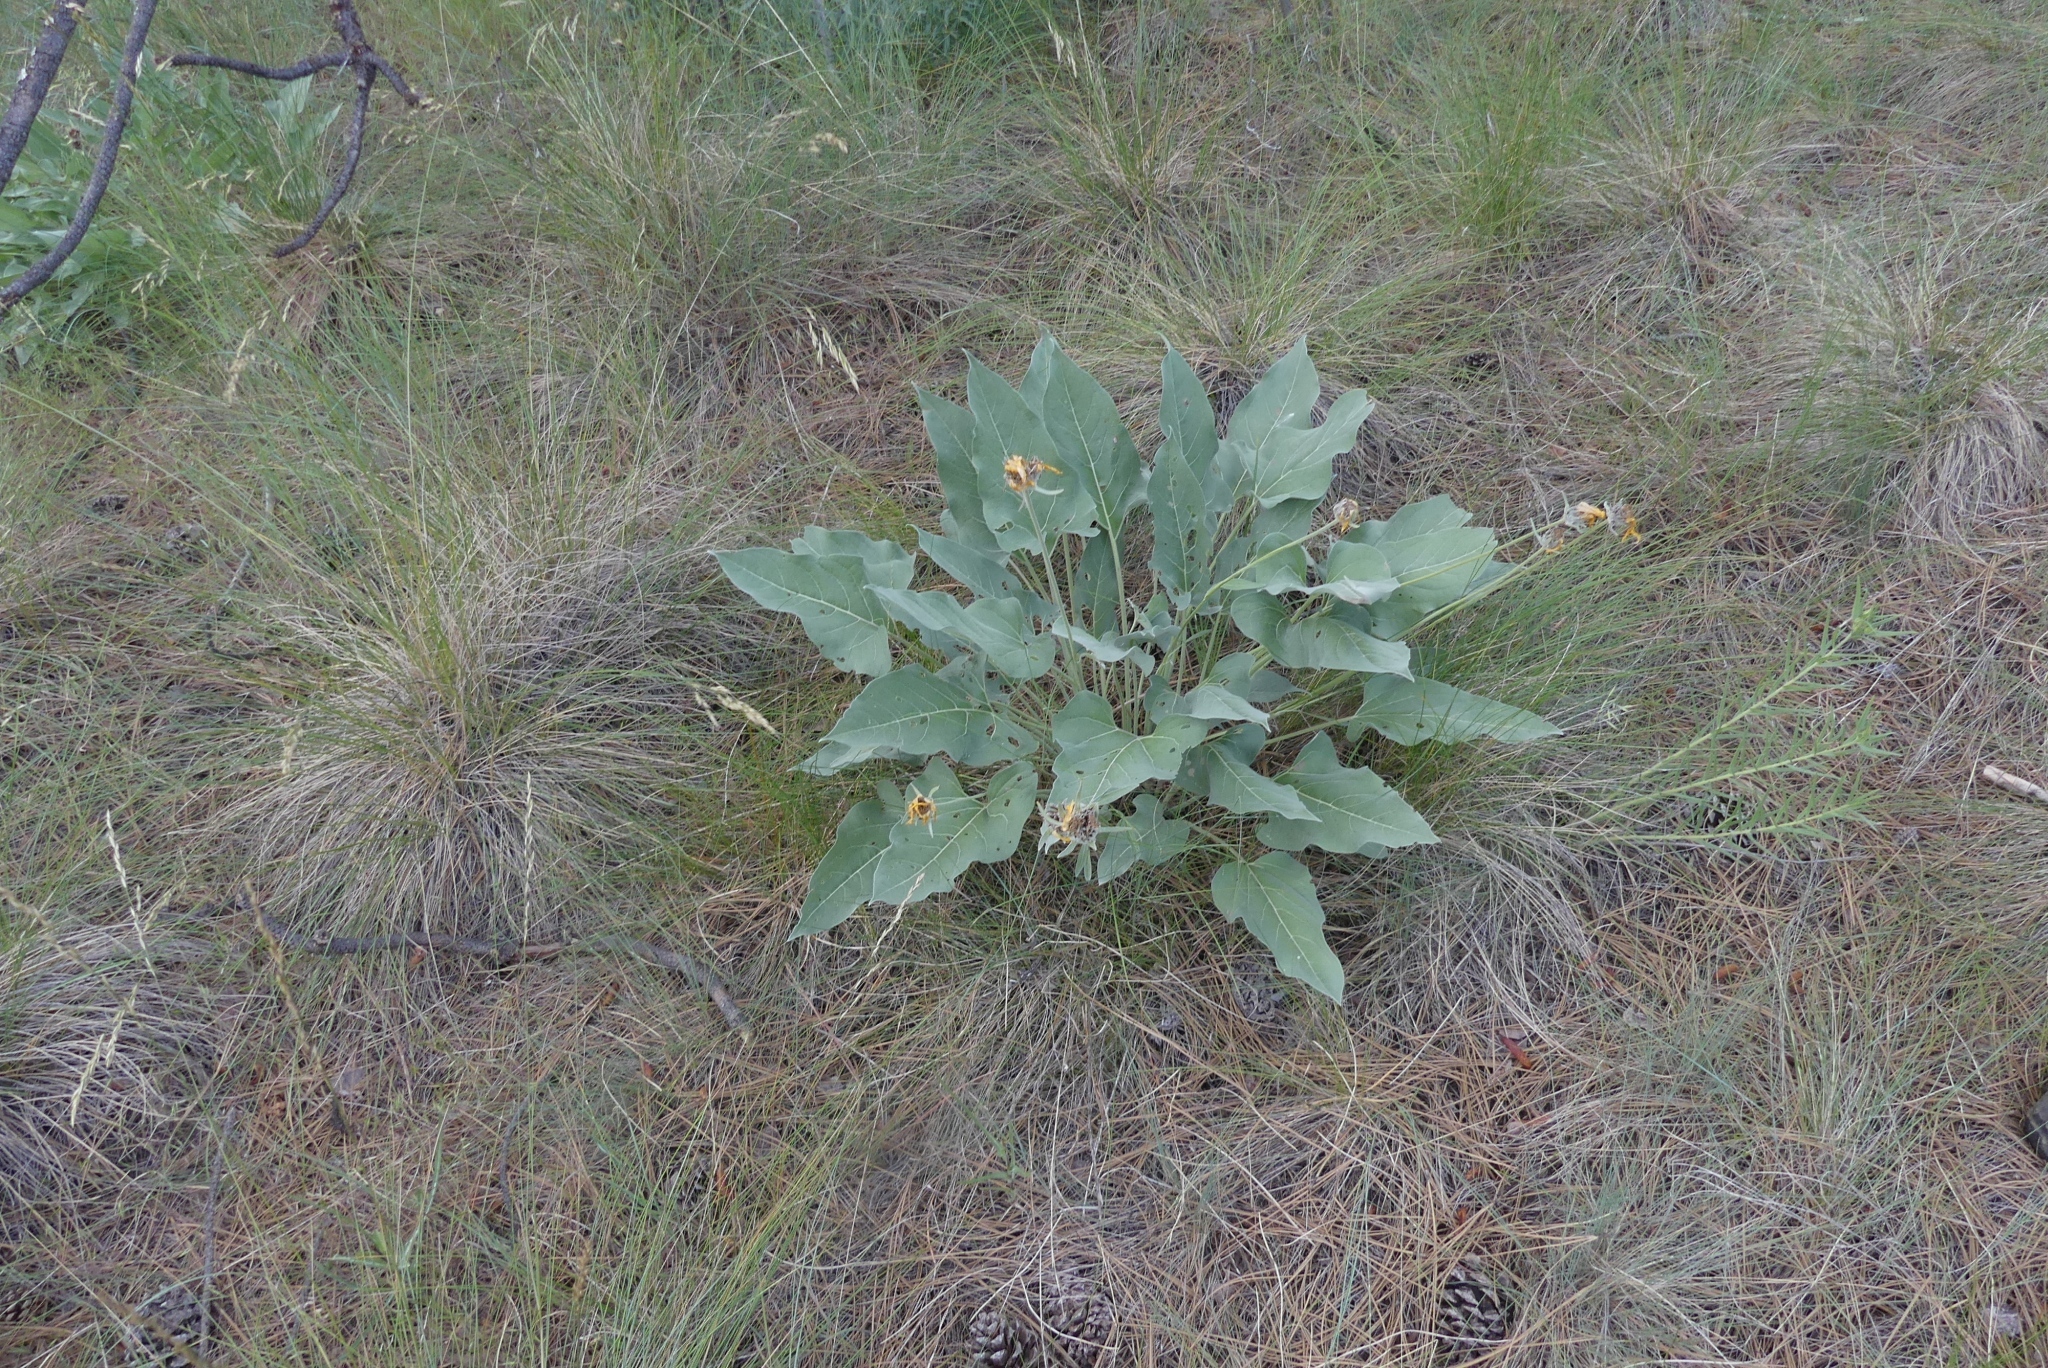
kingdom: Plantae
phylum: Tracheophyta
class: Magnoliopsida
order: Asterales
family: Asteraceae
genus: Wyethia
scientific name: Wyethia sagittata
